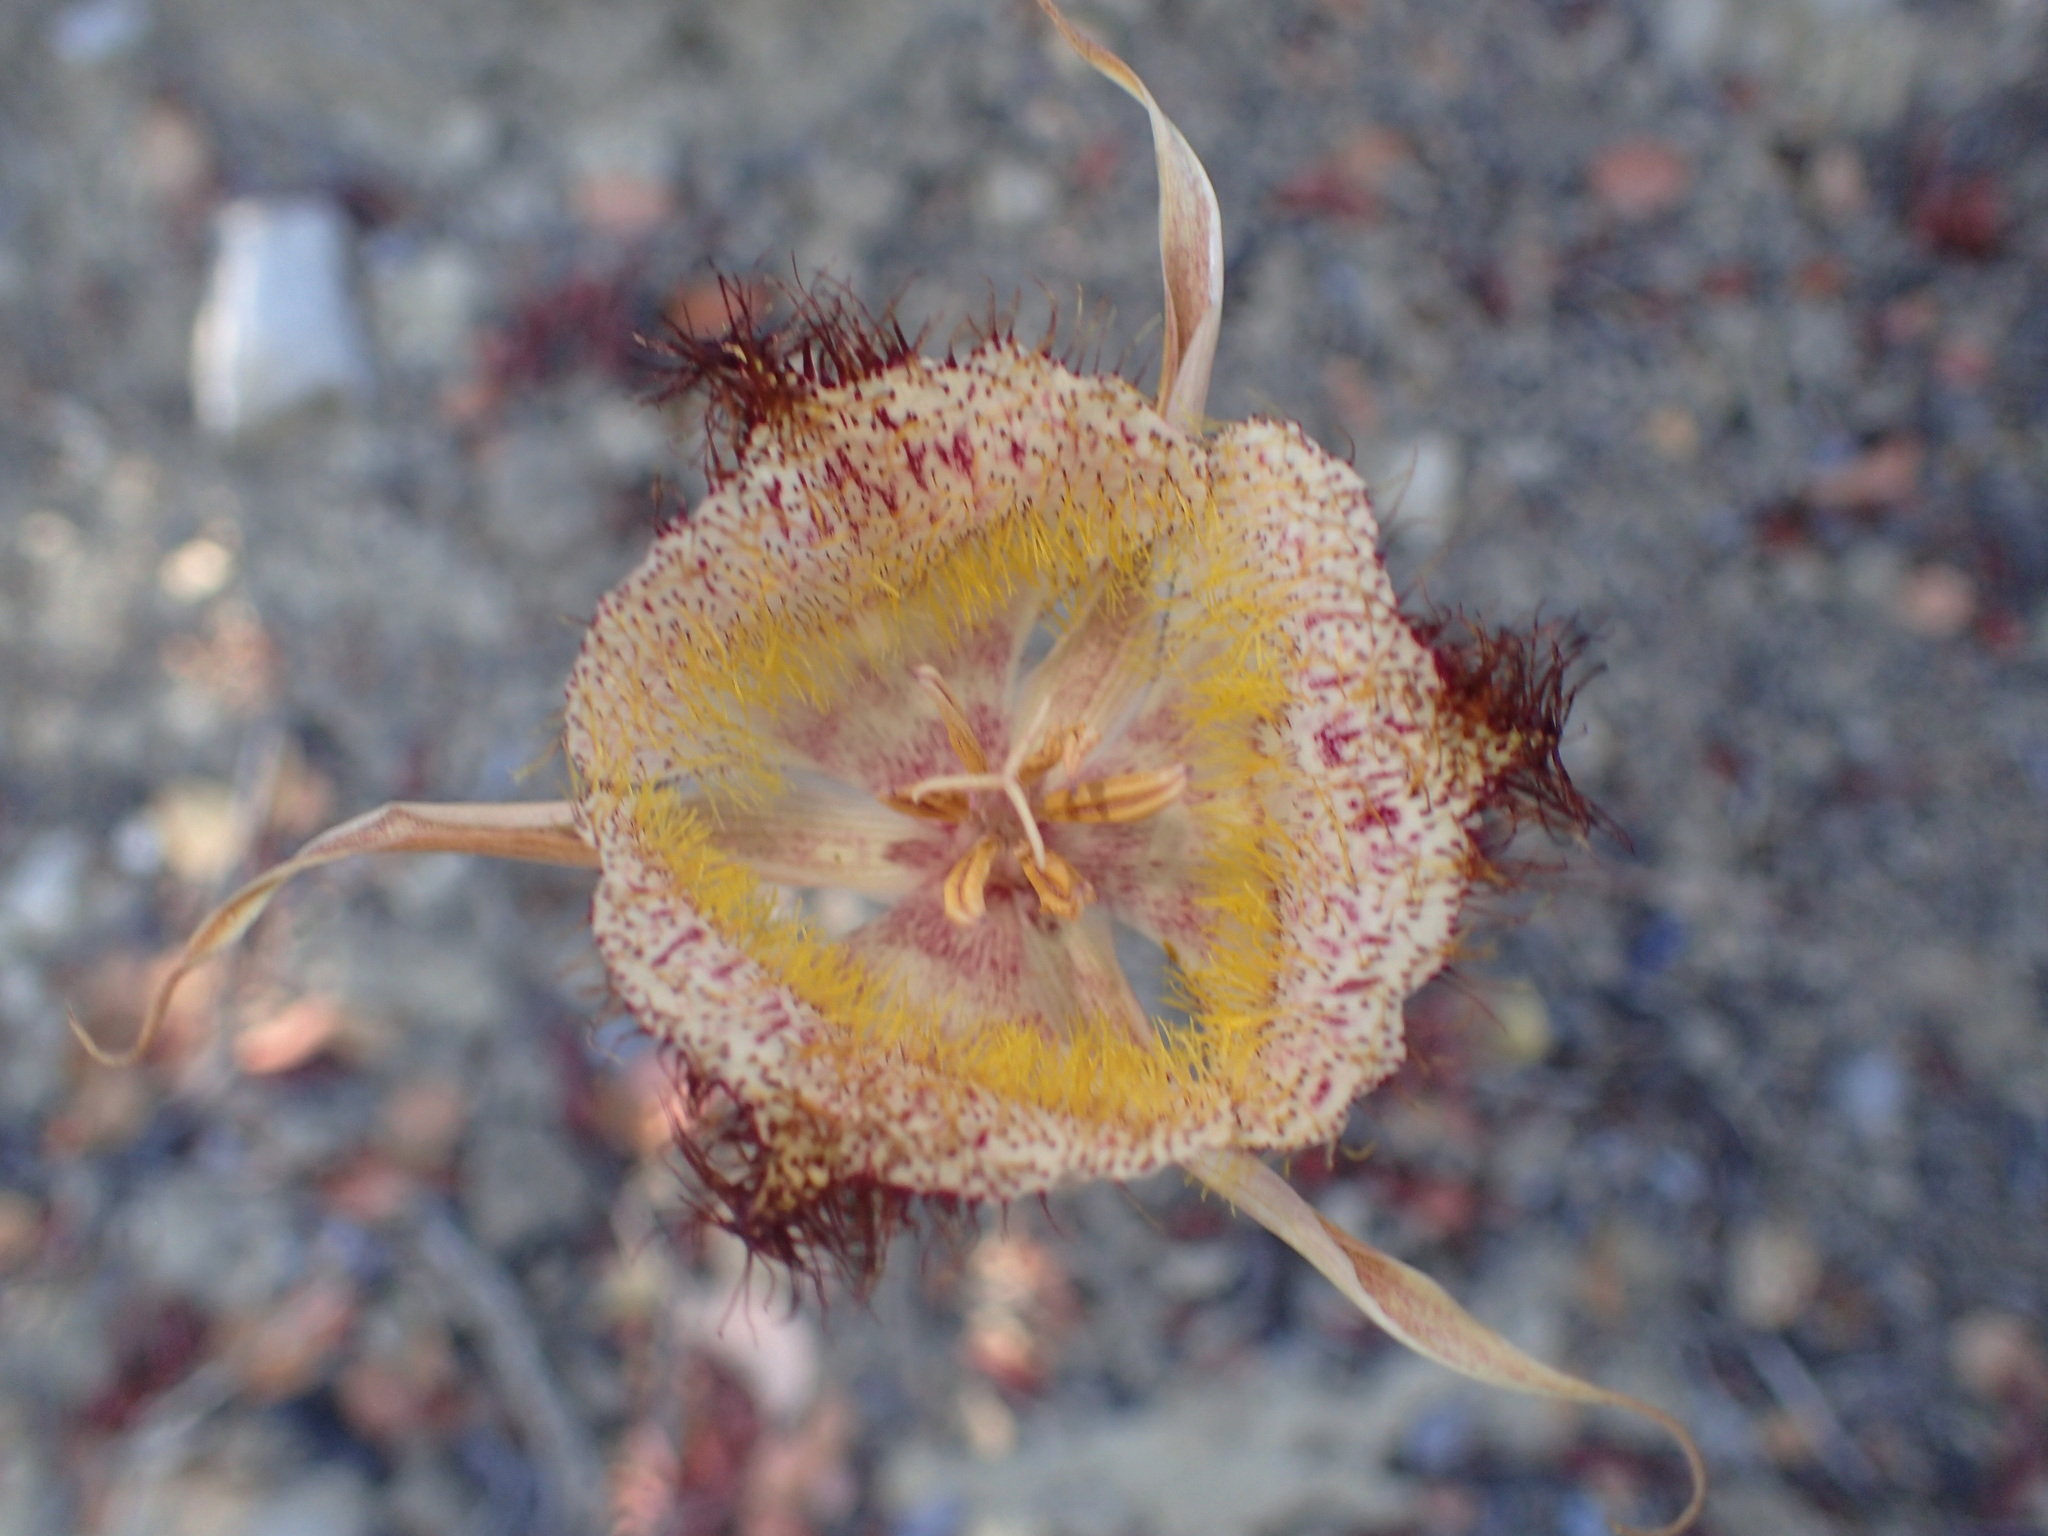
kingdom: Plantae
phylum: Tracheophyta
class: Liliopsida
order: Liliales
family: Liliaceae
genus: Calochortus
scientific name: Calochortus fimbriatus
